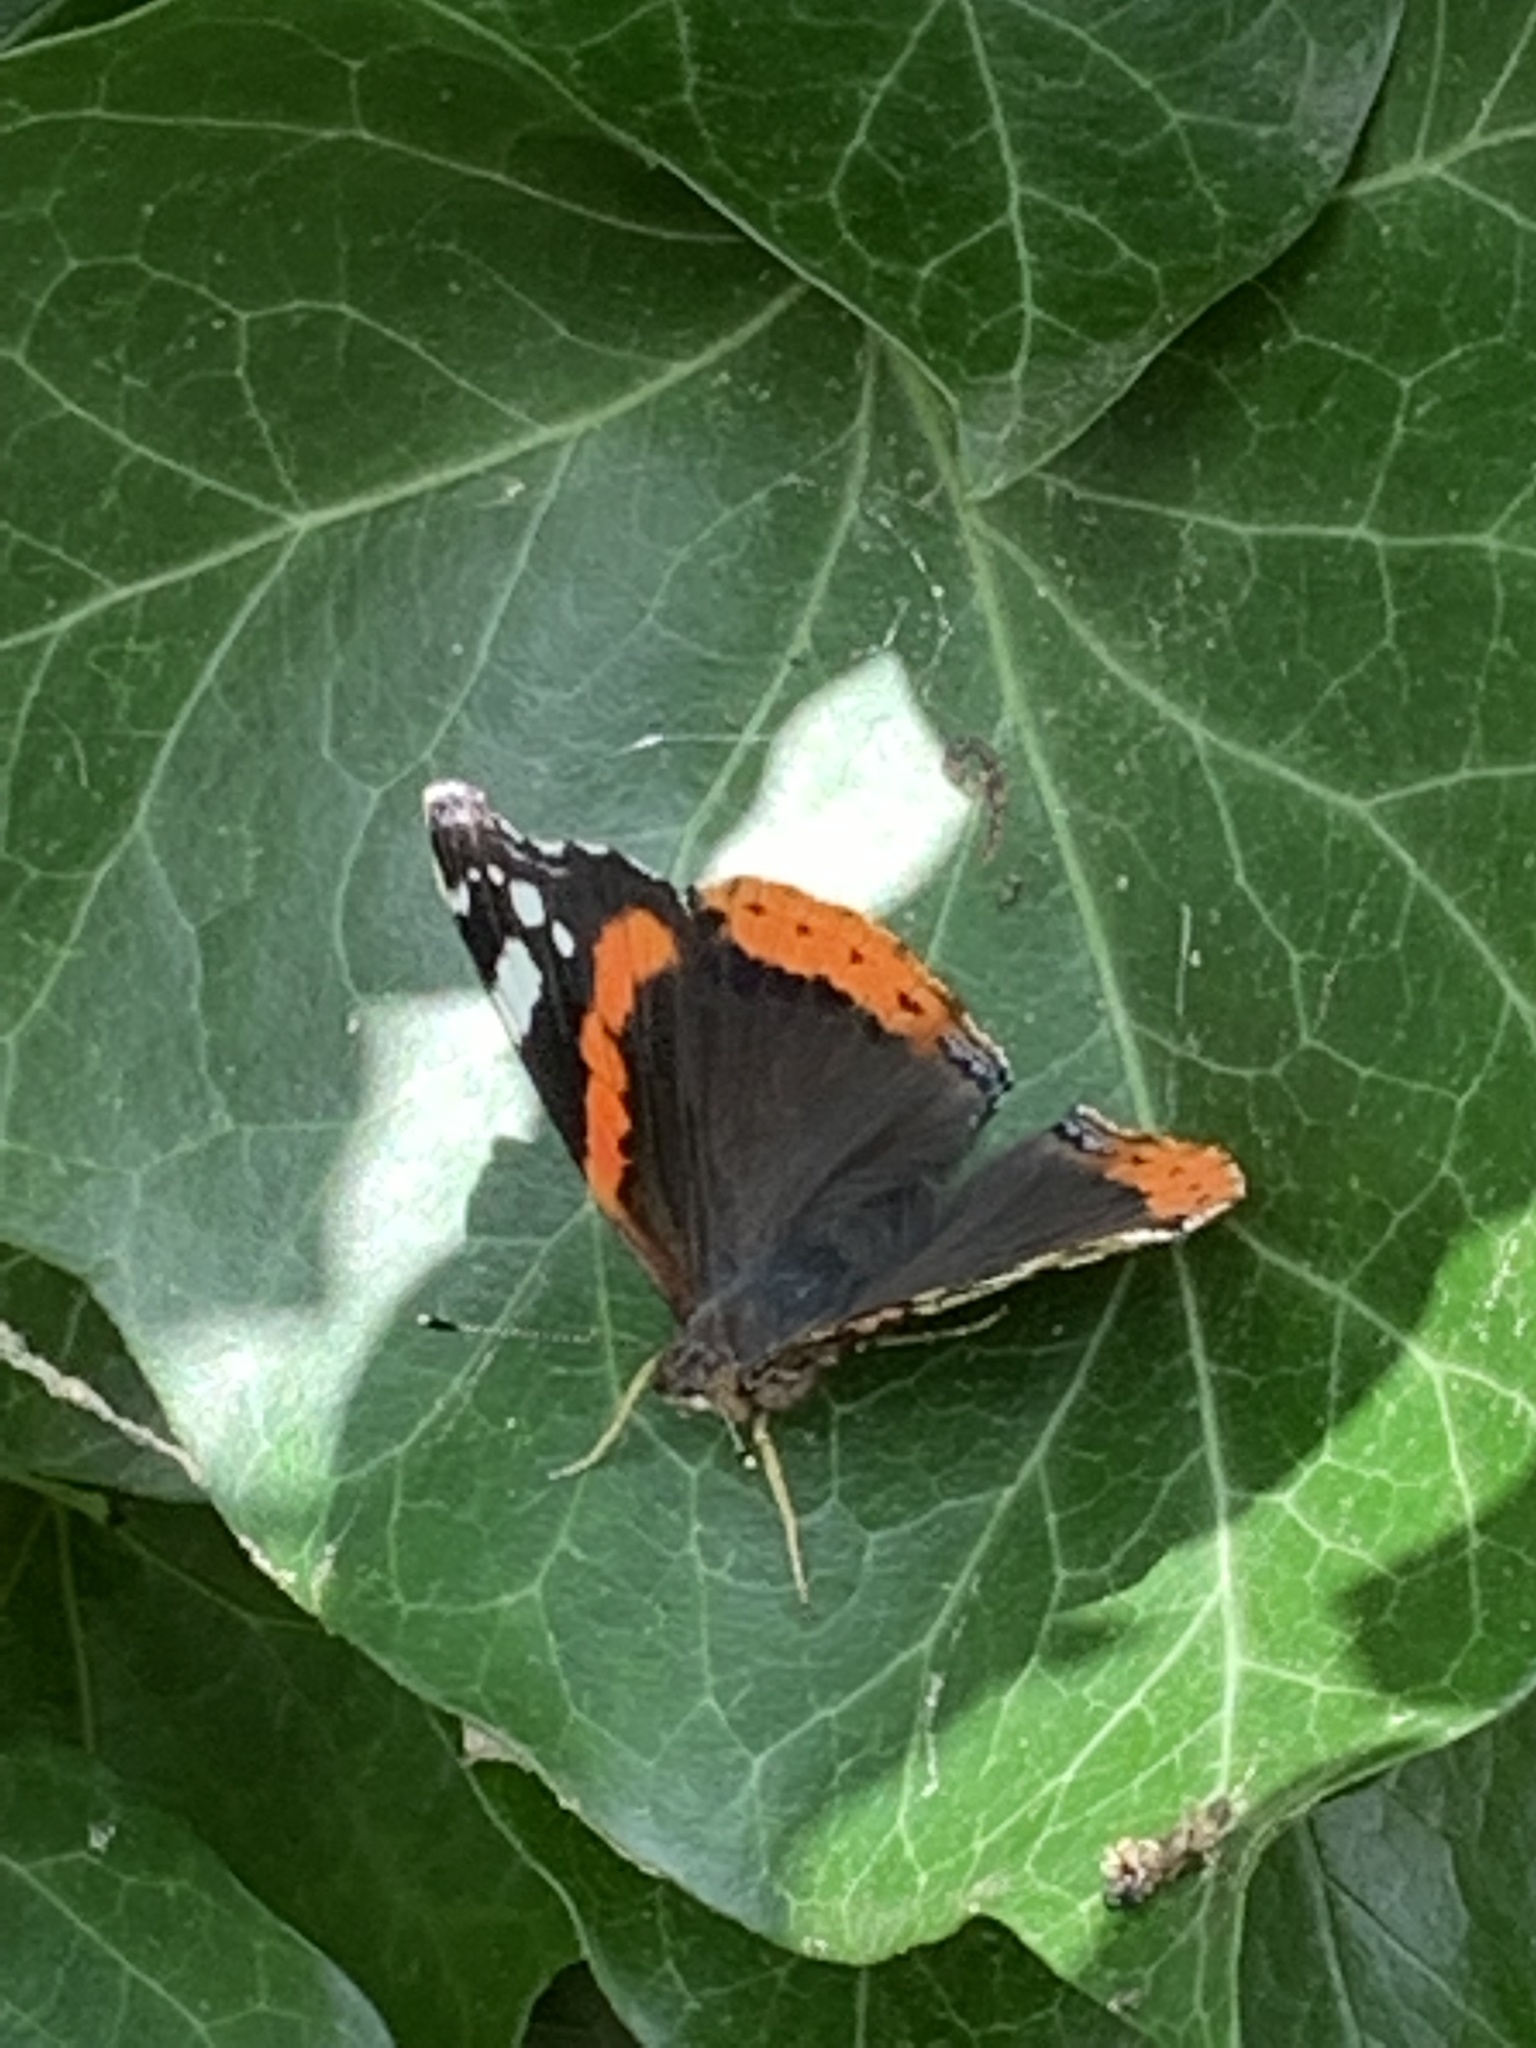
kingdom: Animalia
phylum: Arthropoda
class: Insecta
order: Lepidoptera
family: Nymphalidae
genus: Vanessa
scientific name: Vanessa atalanta
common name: Red admiral
